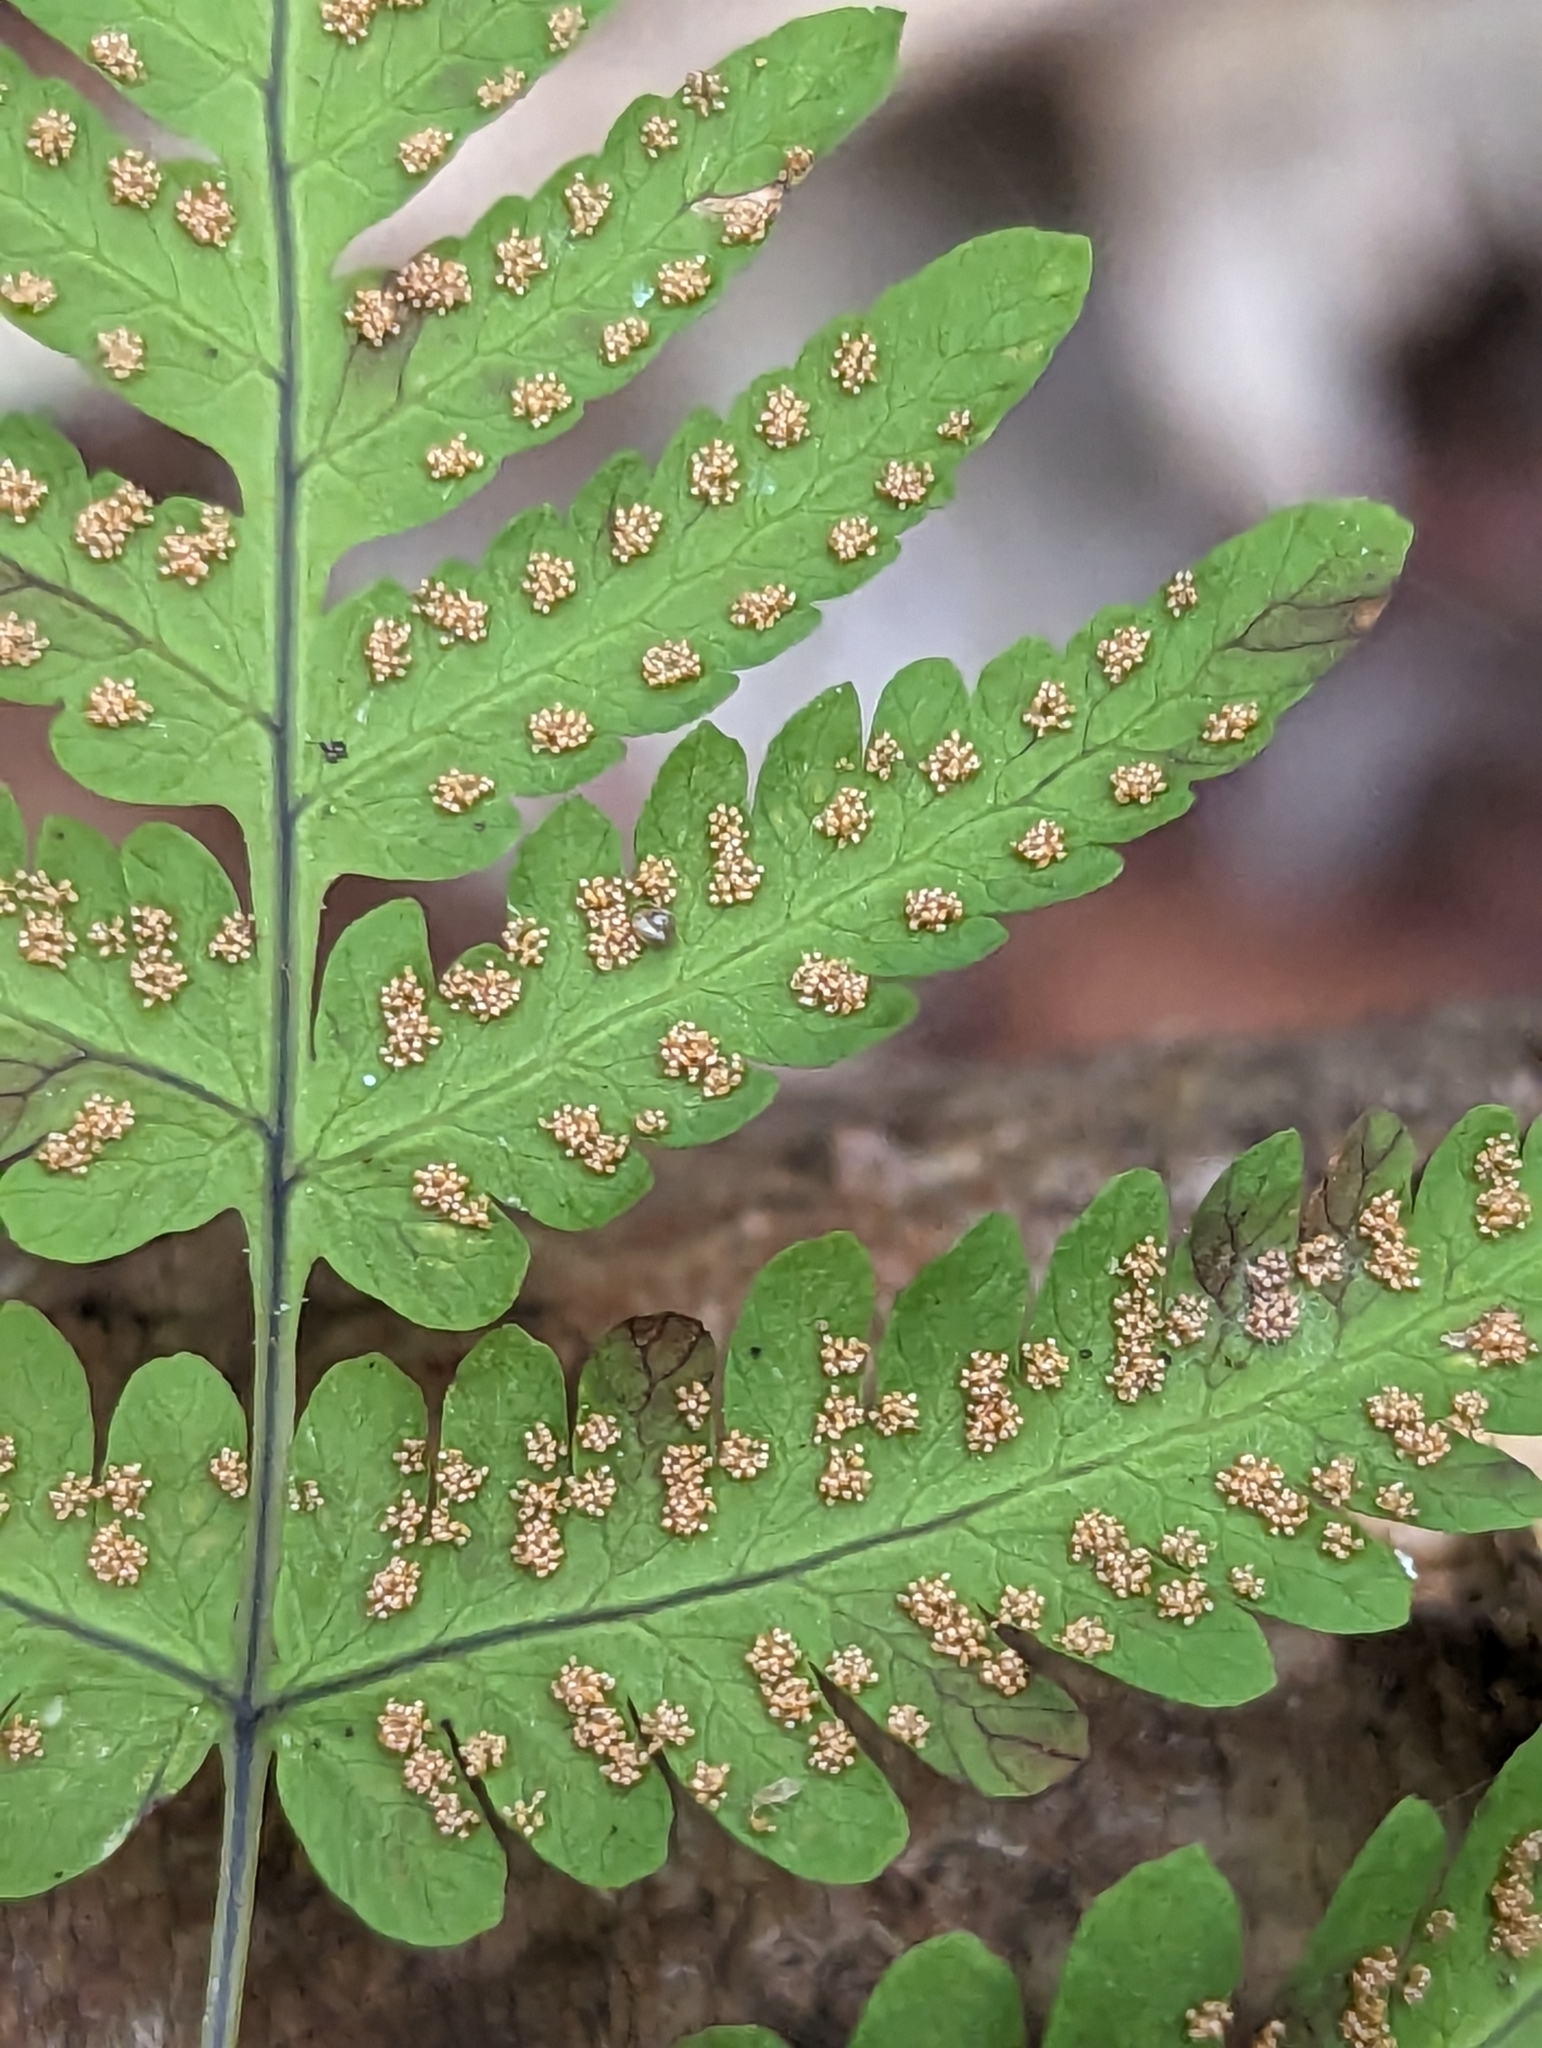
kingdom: Plantae
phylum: Tracheophyta
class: Polypodiopsida
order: Polypodiales
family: Cystopteridaceae
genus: Gymnocarpium
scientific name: Gymnocarpium dryopteris
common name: Oak fern
